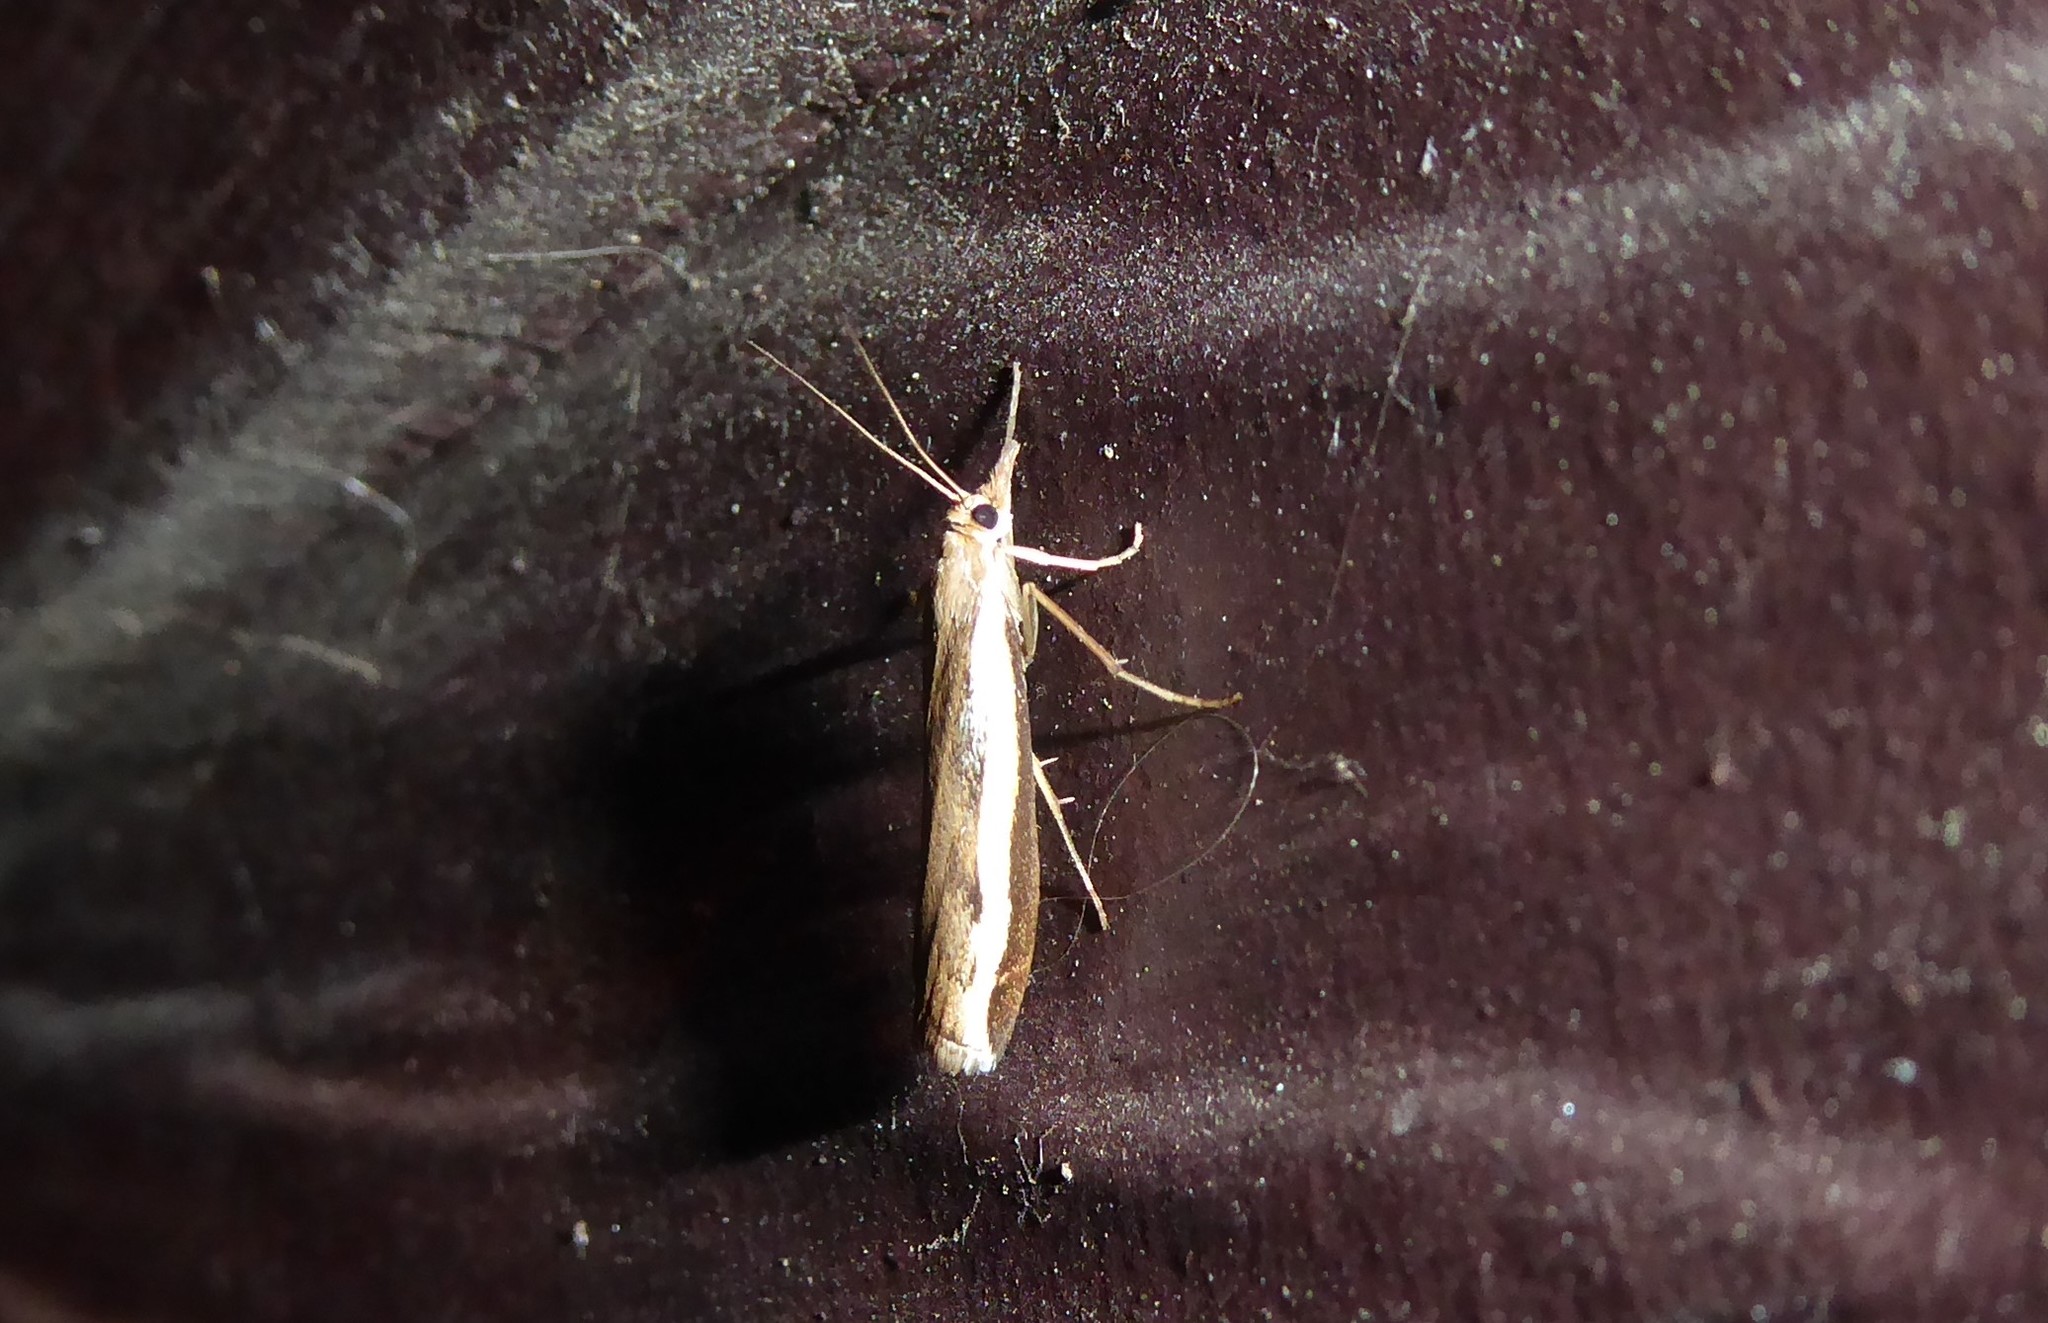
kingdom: Animalia
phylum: Arthropoda
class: Insecta
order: Lepidoptera
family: Crambidae
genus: Orocrambus
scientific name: Orocrambus flexuosellus
